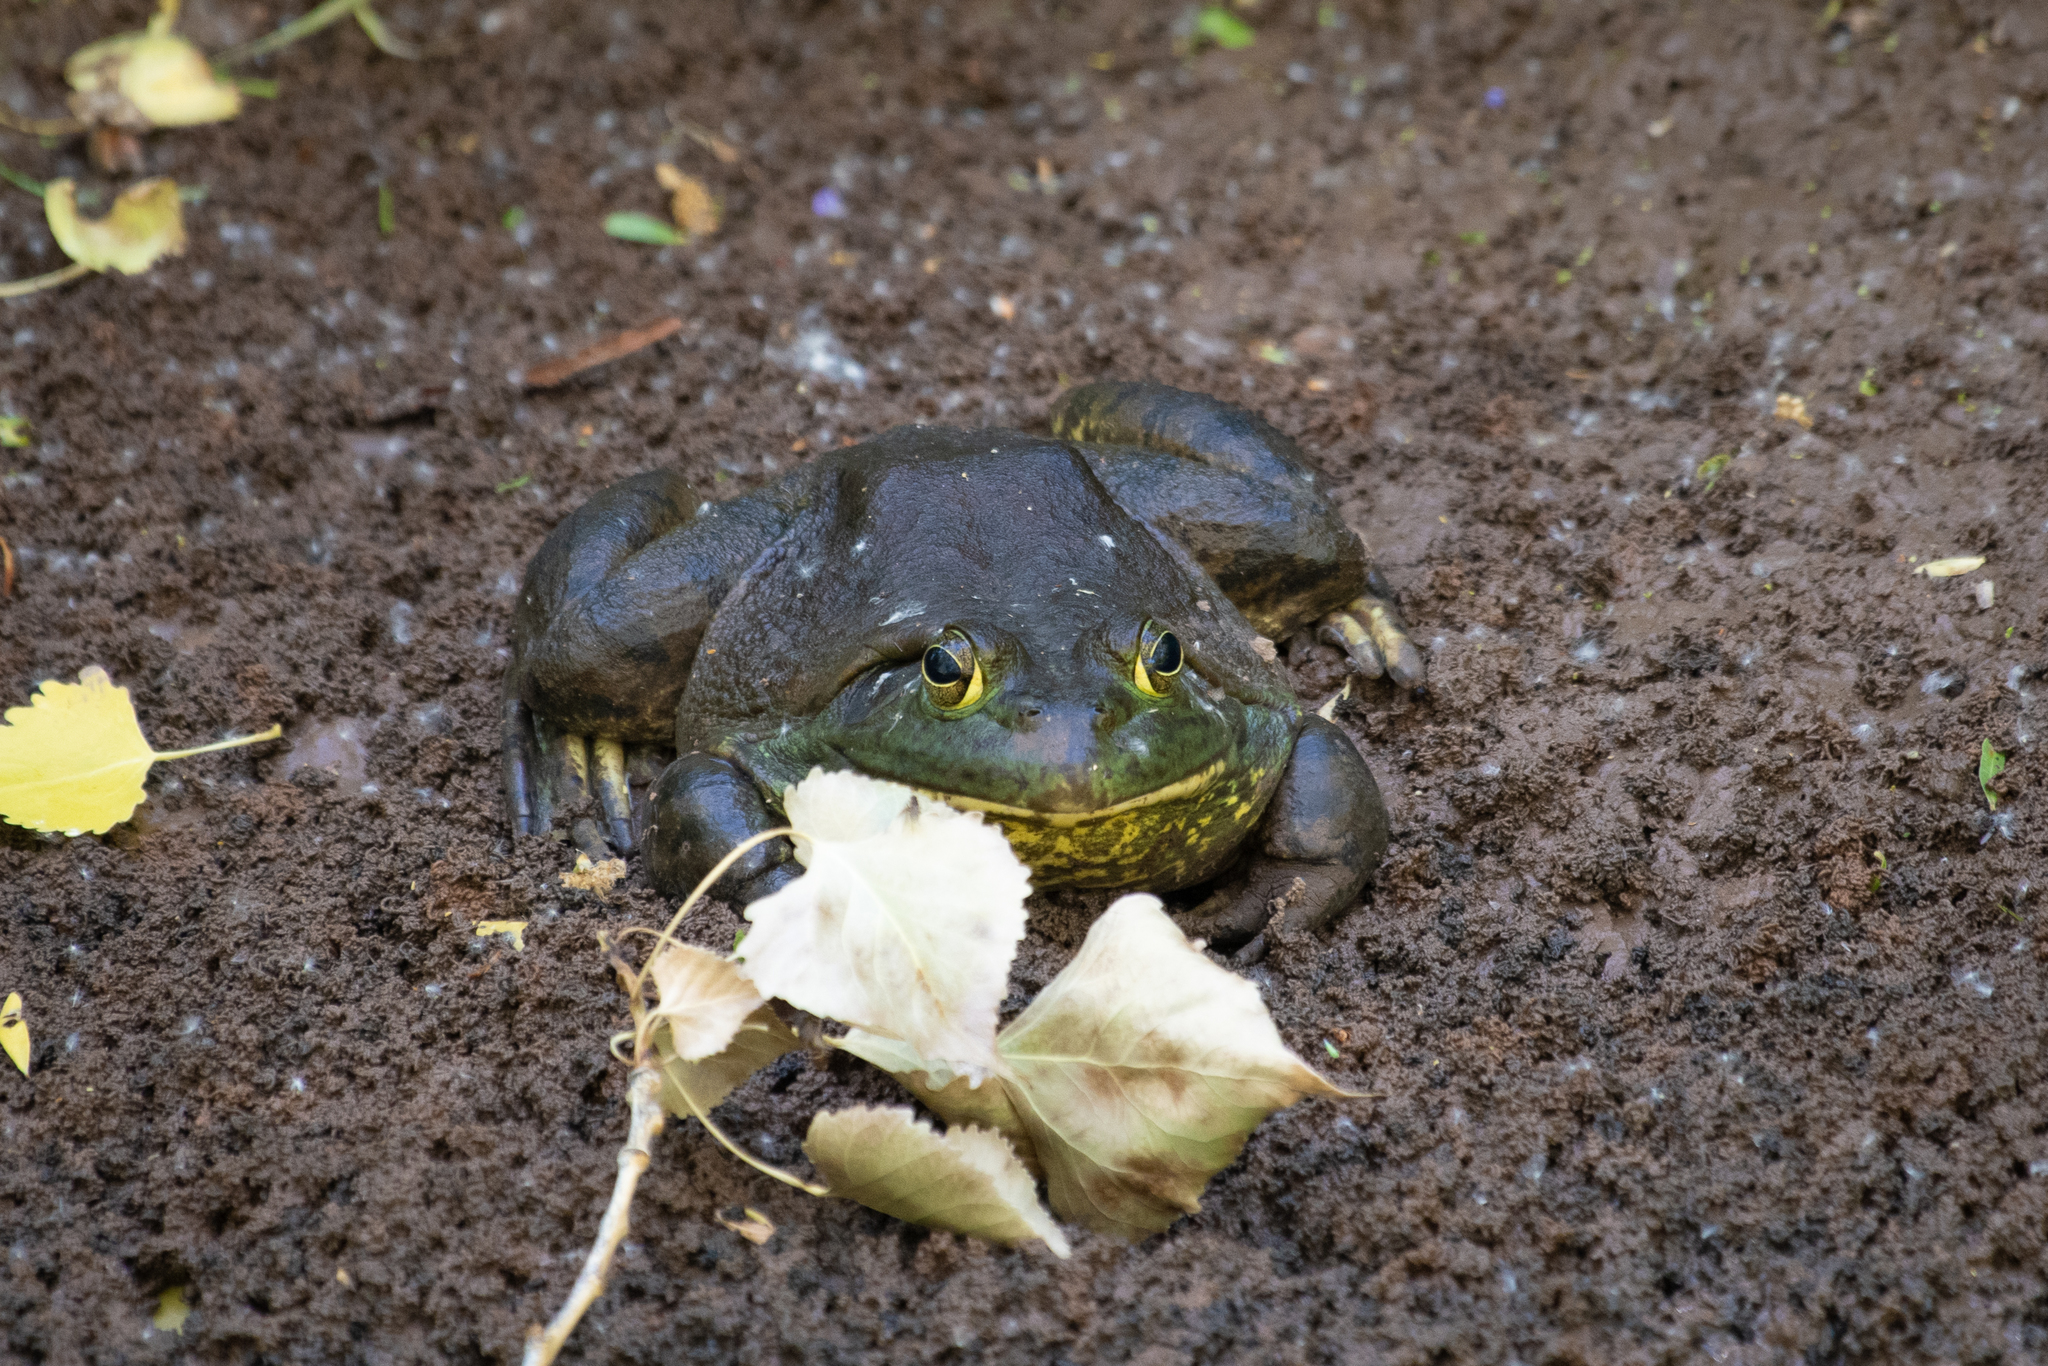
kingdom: Animalia
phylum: Chordata
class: Amphibia
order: Anura
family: Ranidae
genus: Lithobates
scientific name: Lithobates catesbeianus
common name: American bullfrog
